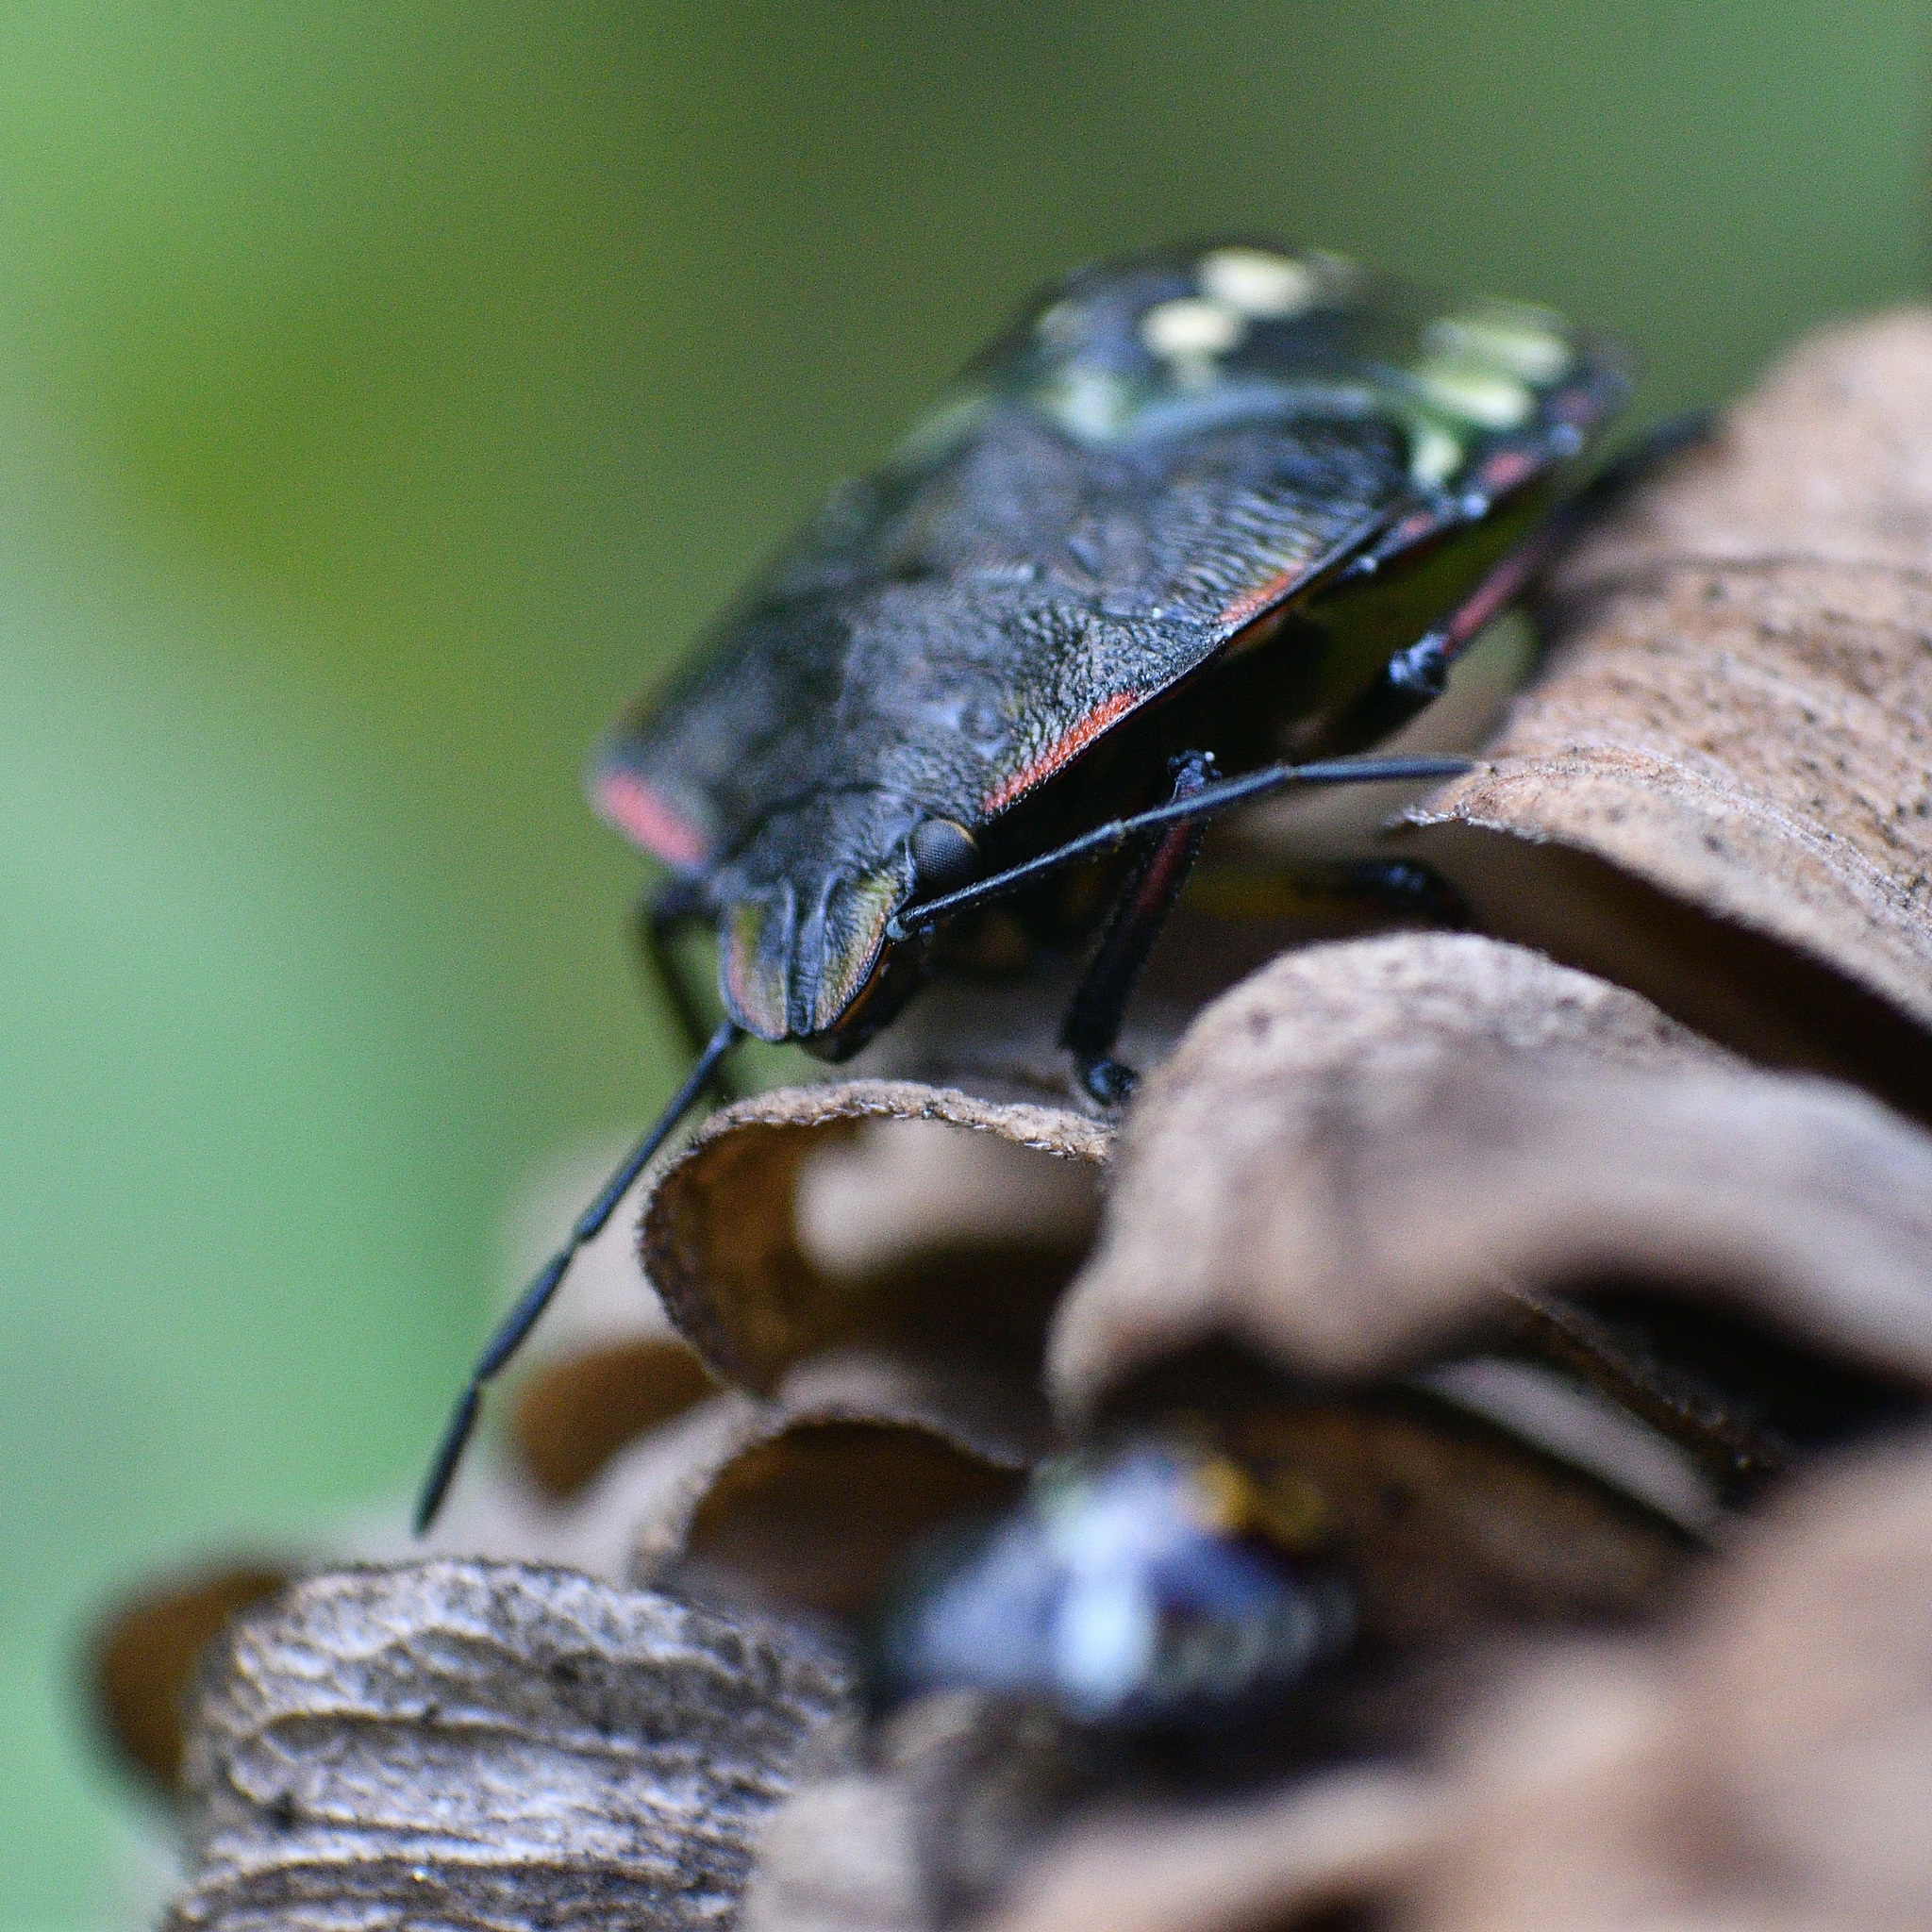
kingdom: Animalia
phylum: Arthropoda
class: Insecta
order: Hemiptera
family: Pentatomidae
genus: Nezara
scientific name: Nezara viridula
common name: Southern green stink bug
